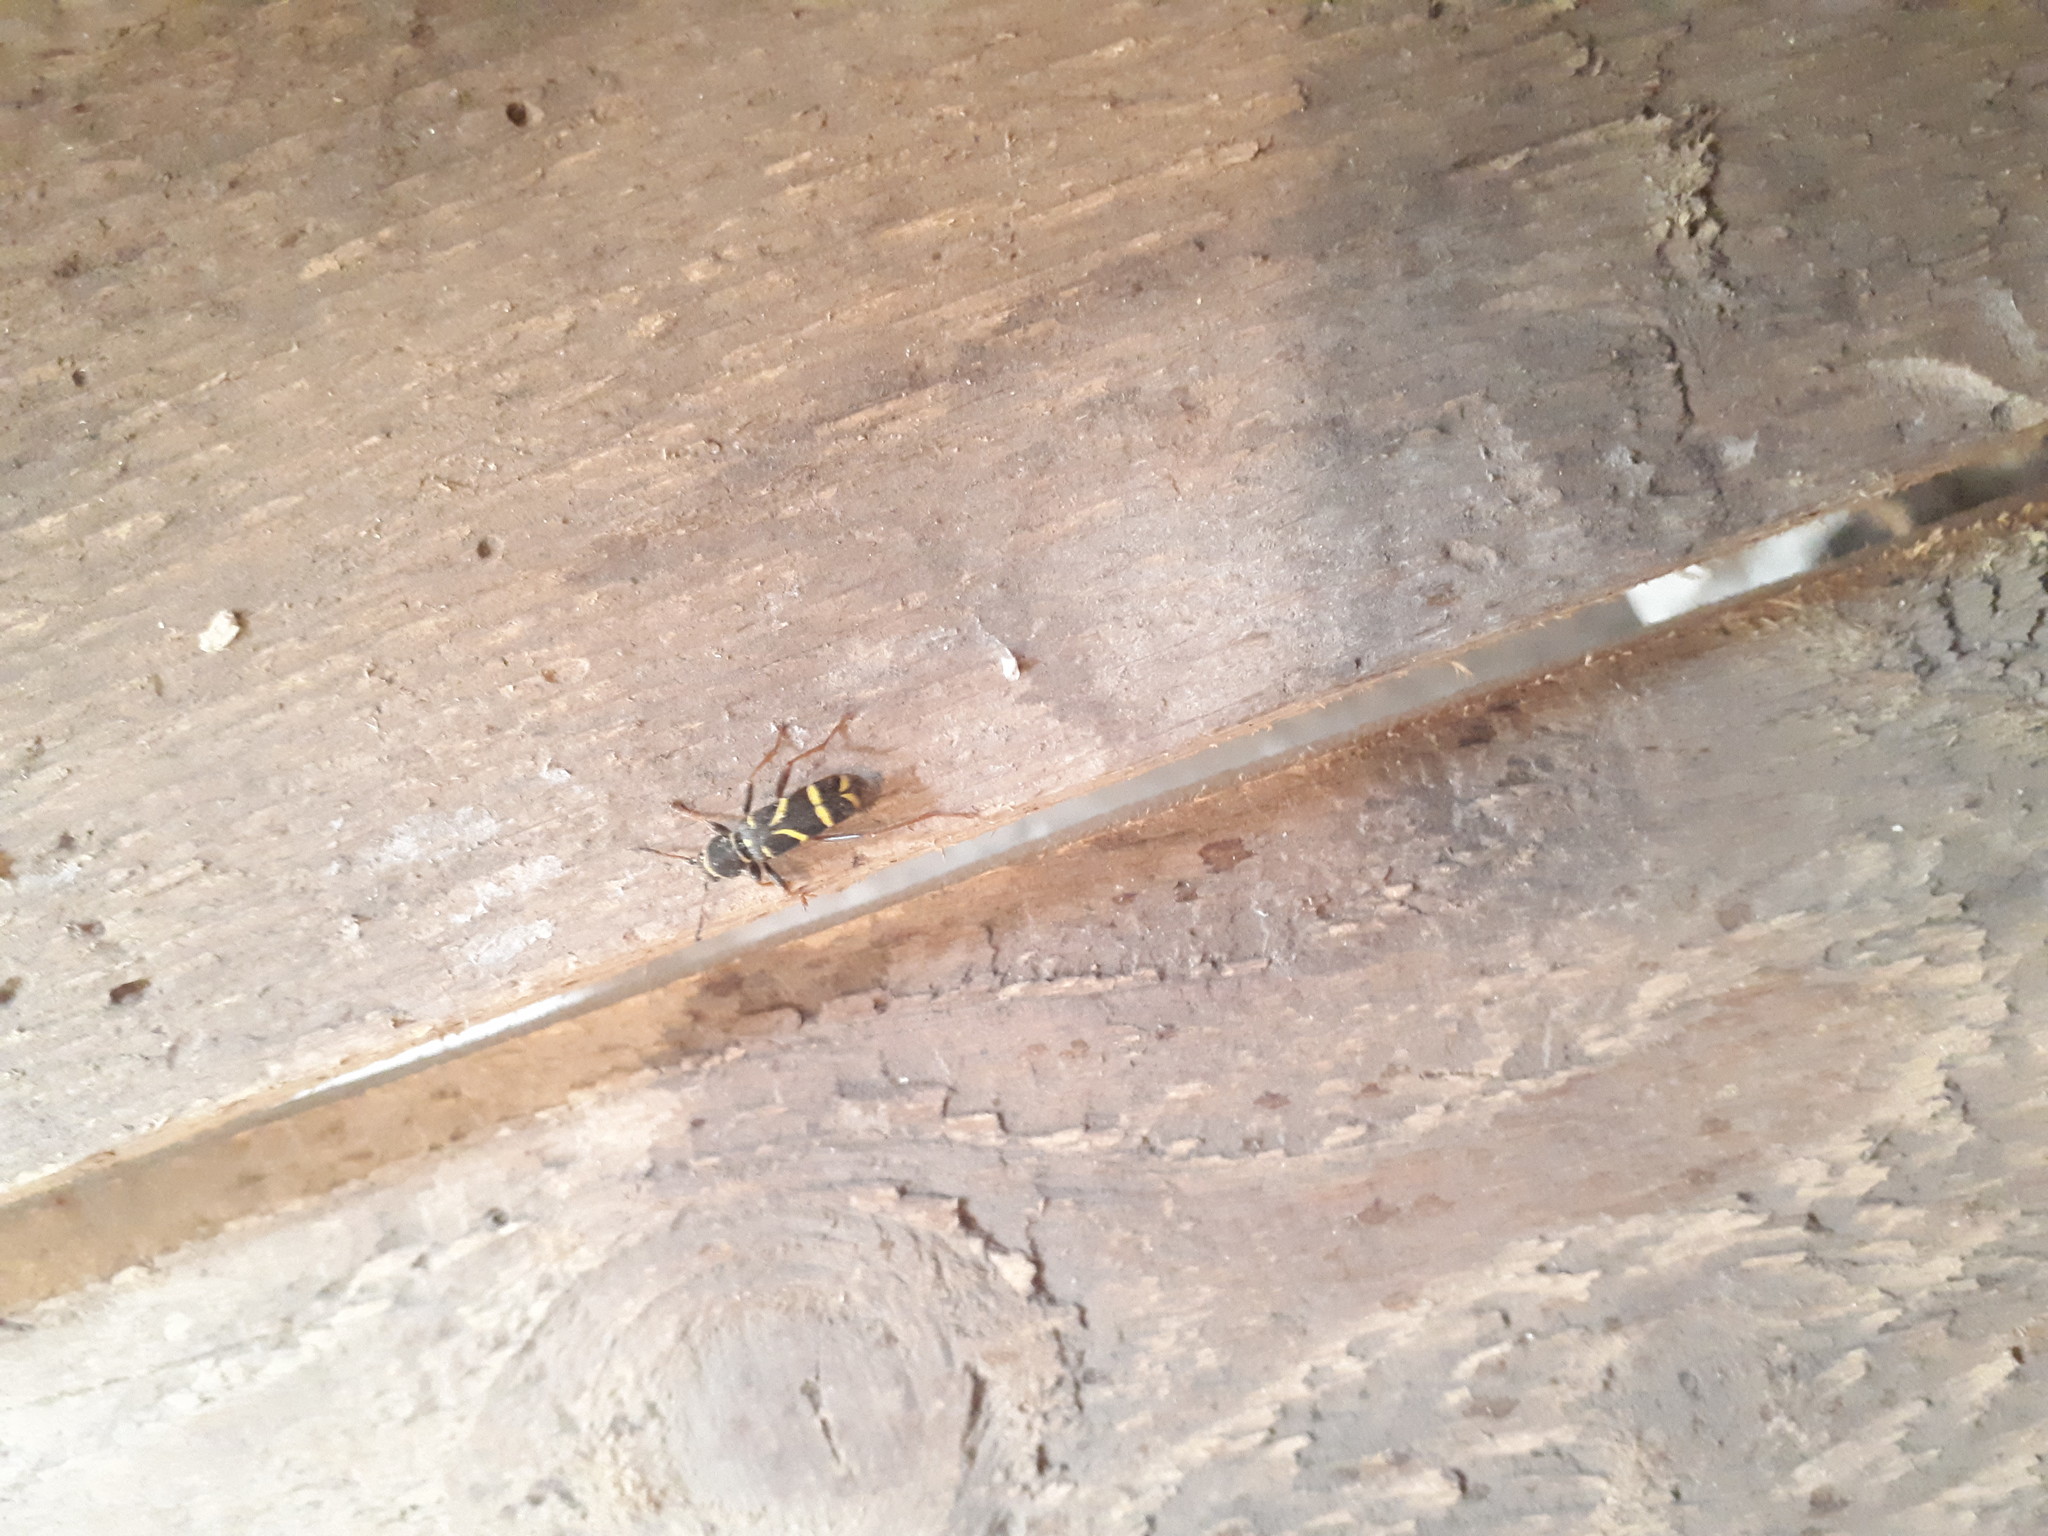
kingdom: Animalia
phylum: Arthropoda
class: Insecta
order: Coleoptera
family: Cerambycidae
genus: Clytus
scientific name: Clytus arietis
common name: Wasp beetle
